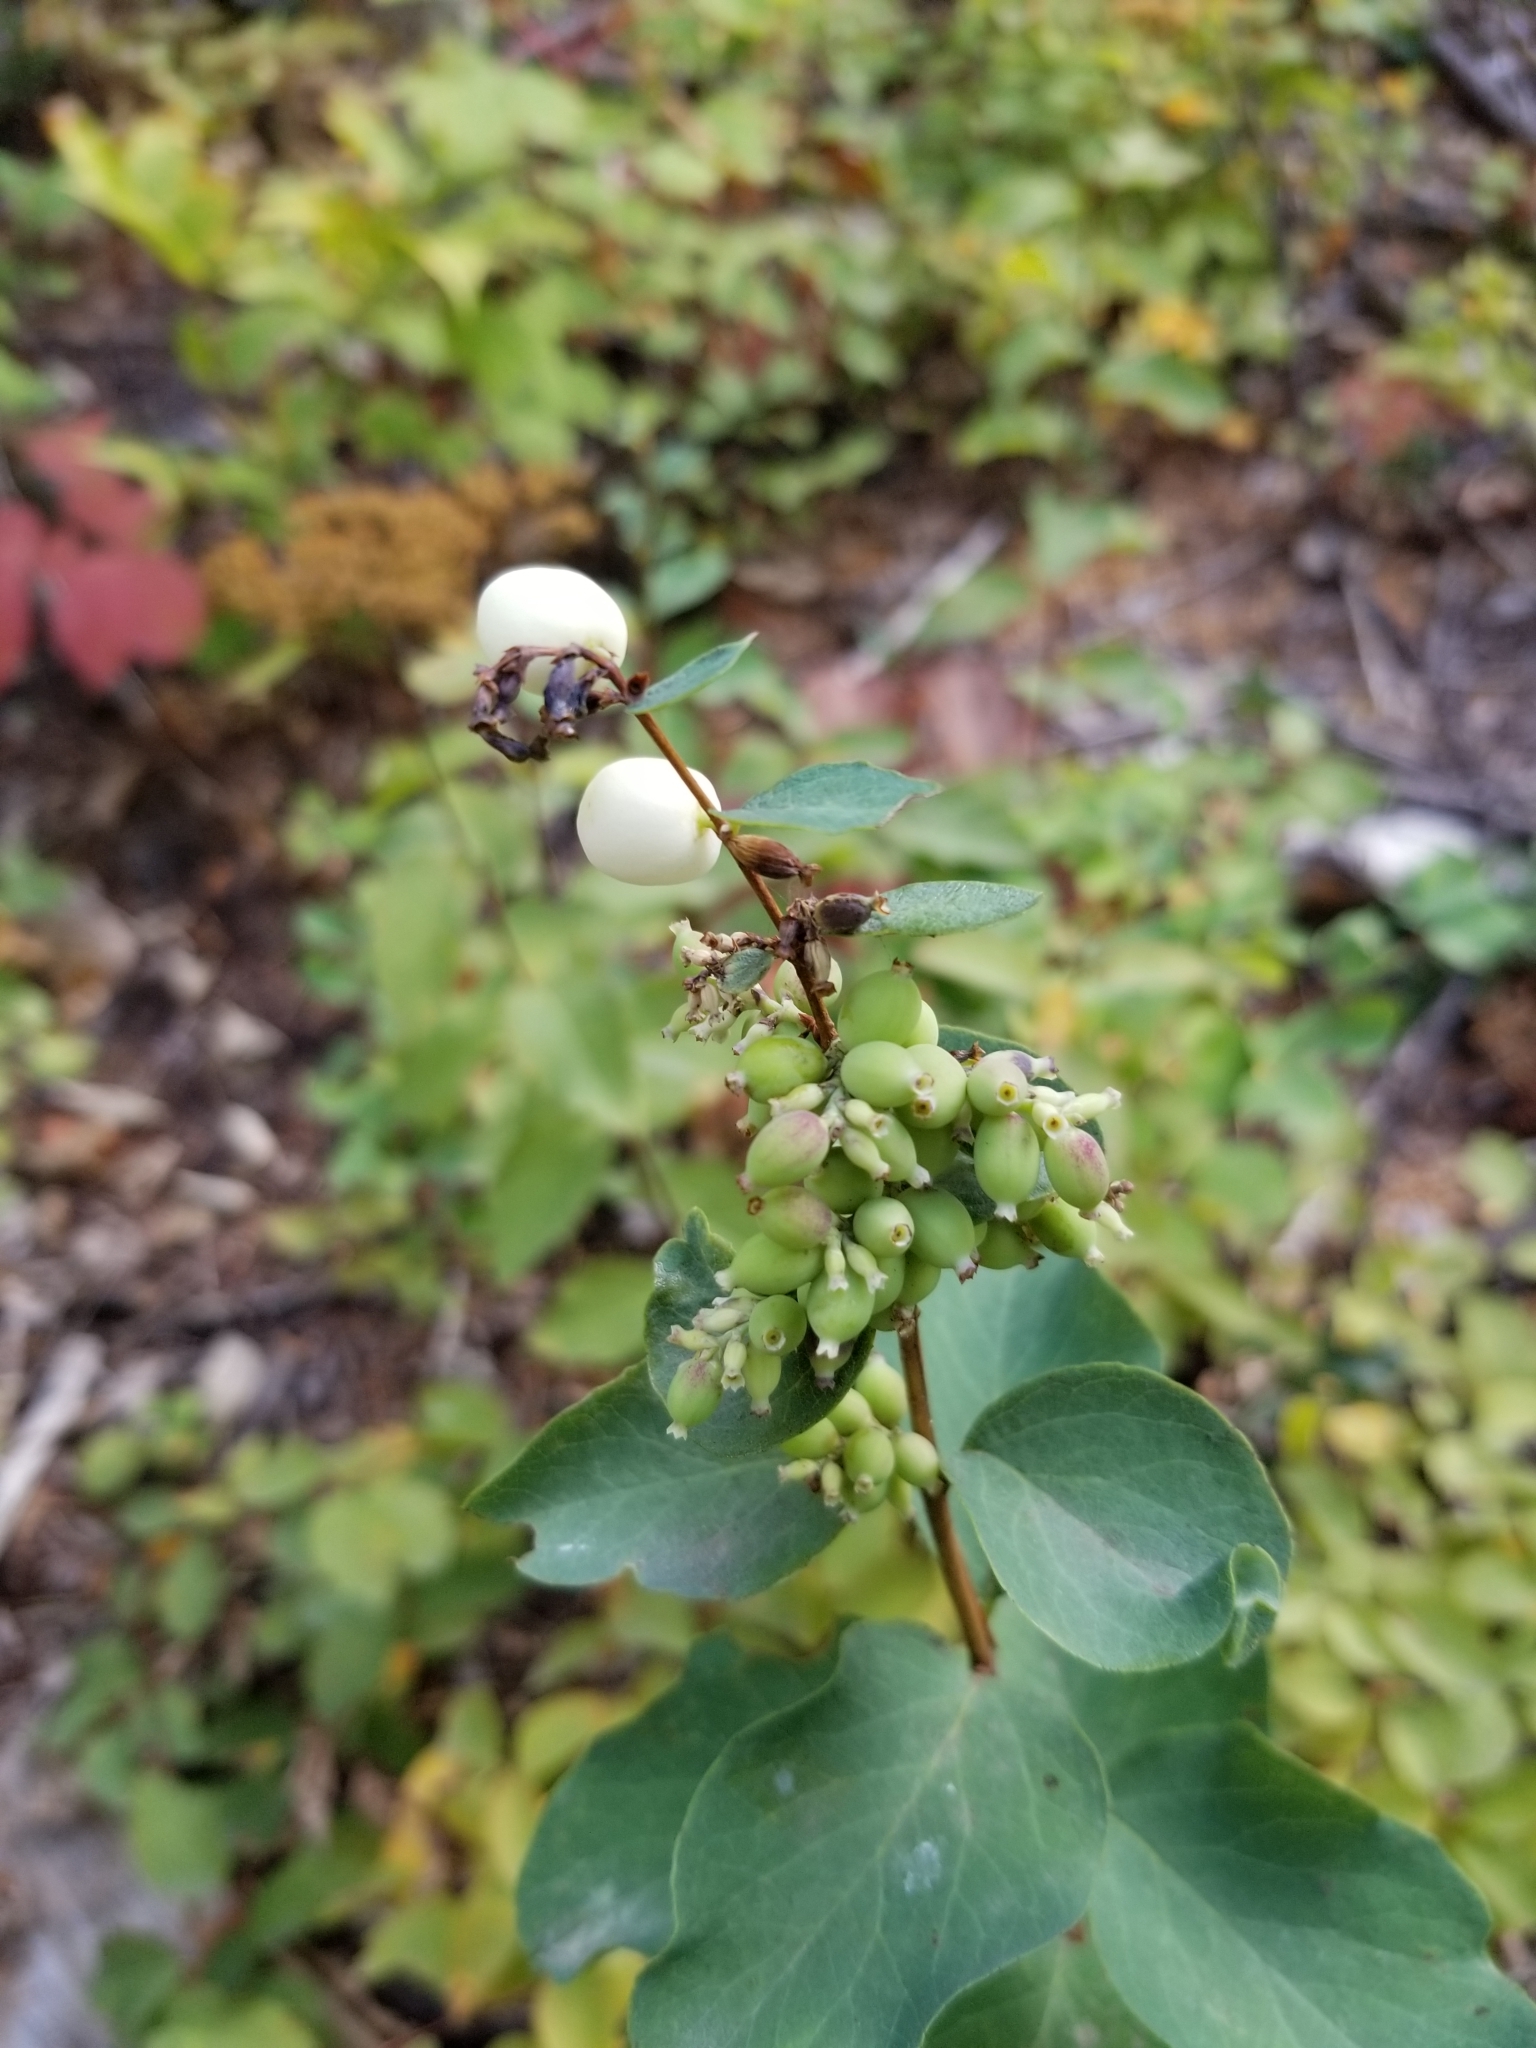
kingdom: Plantae
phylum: Tracheophyta
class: Magnoliopsida
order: Dipsacales
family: Caprifoliaceae
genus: Symphoricarpos
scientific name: Symphoricarpos albus
